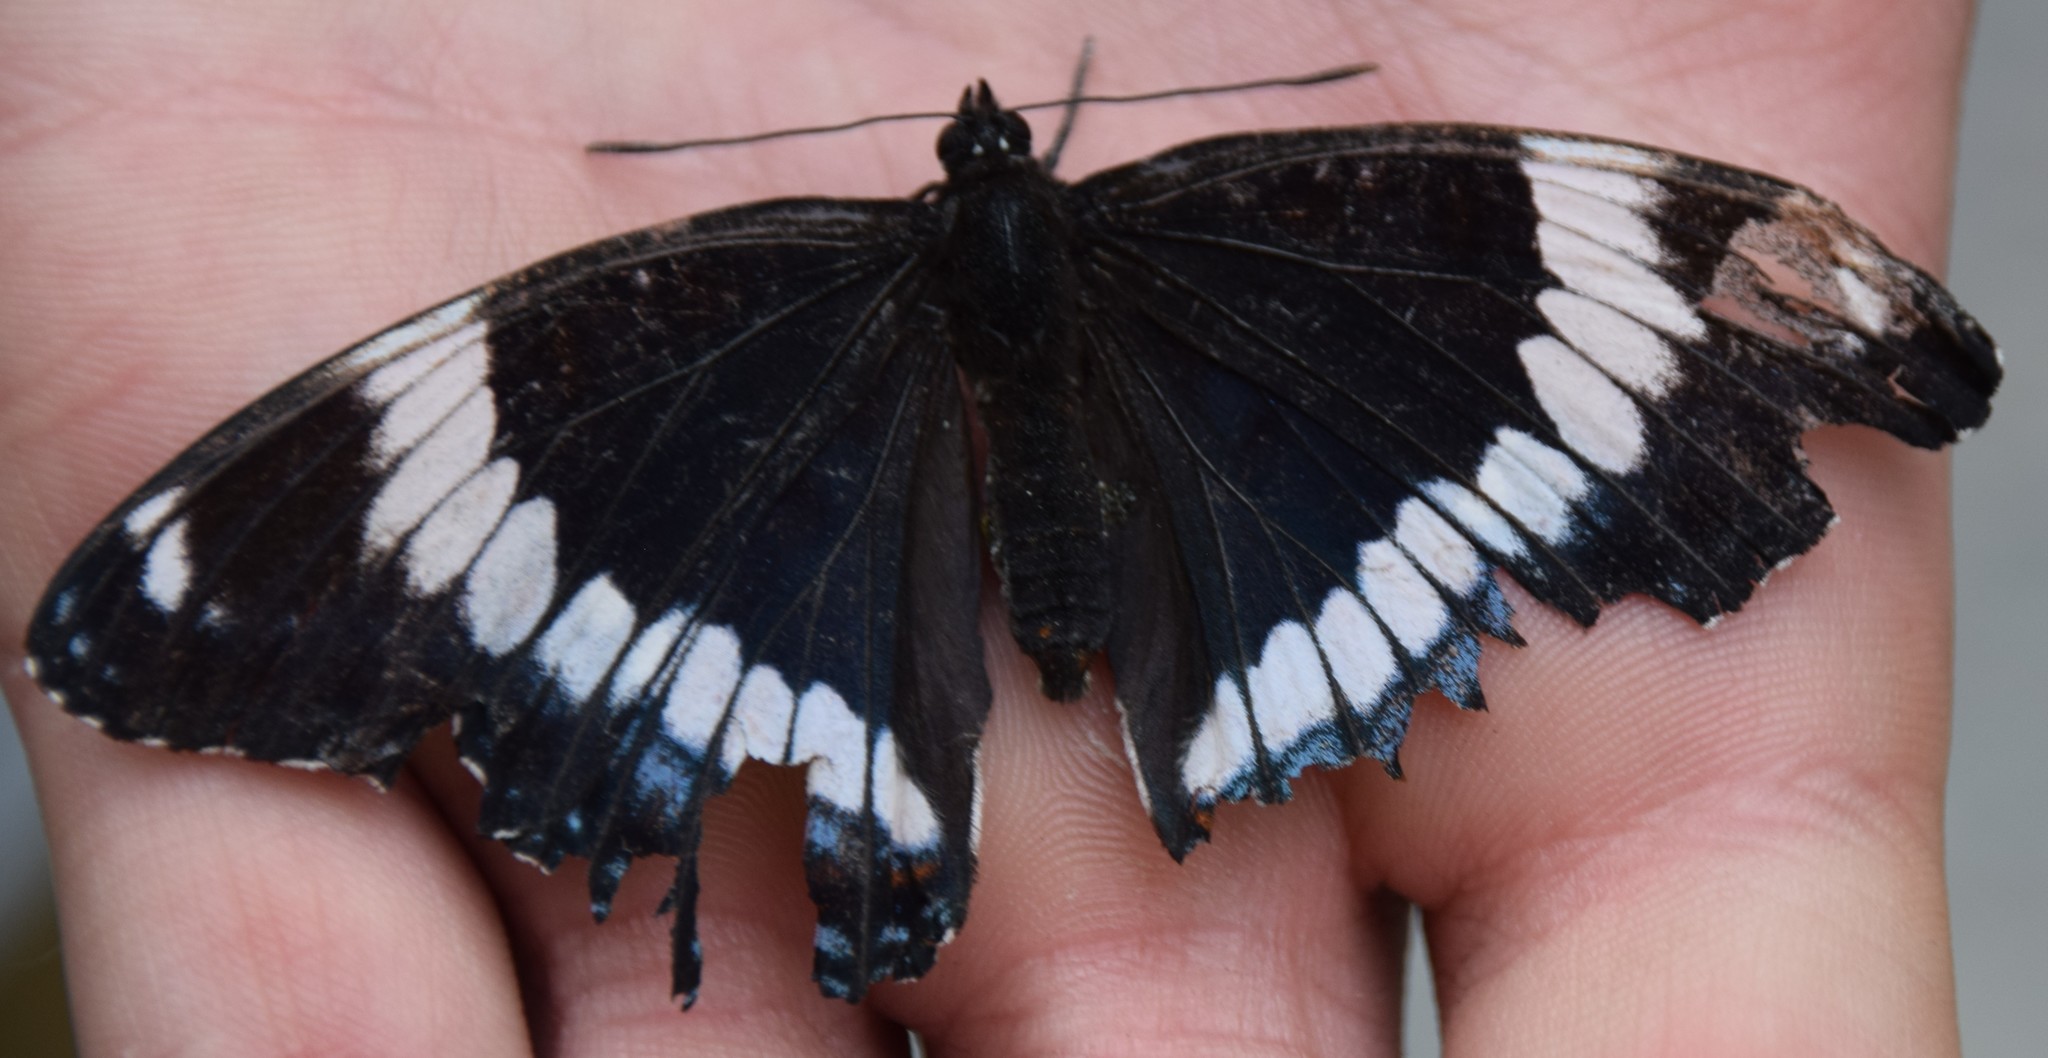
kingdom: Animalia
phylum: Arthropoda
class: Insecta
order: Lepidoptera
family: Nymphalidae
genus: Limenitis
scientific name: Limenitis arthemis
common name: Red-spotted admiral
